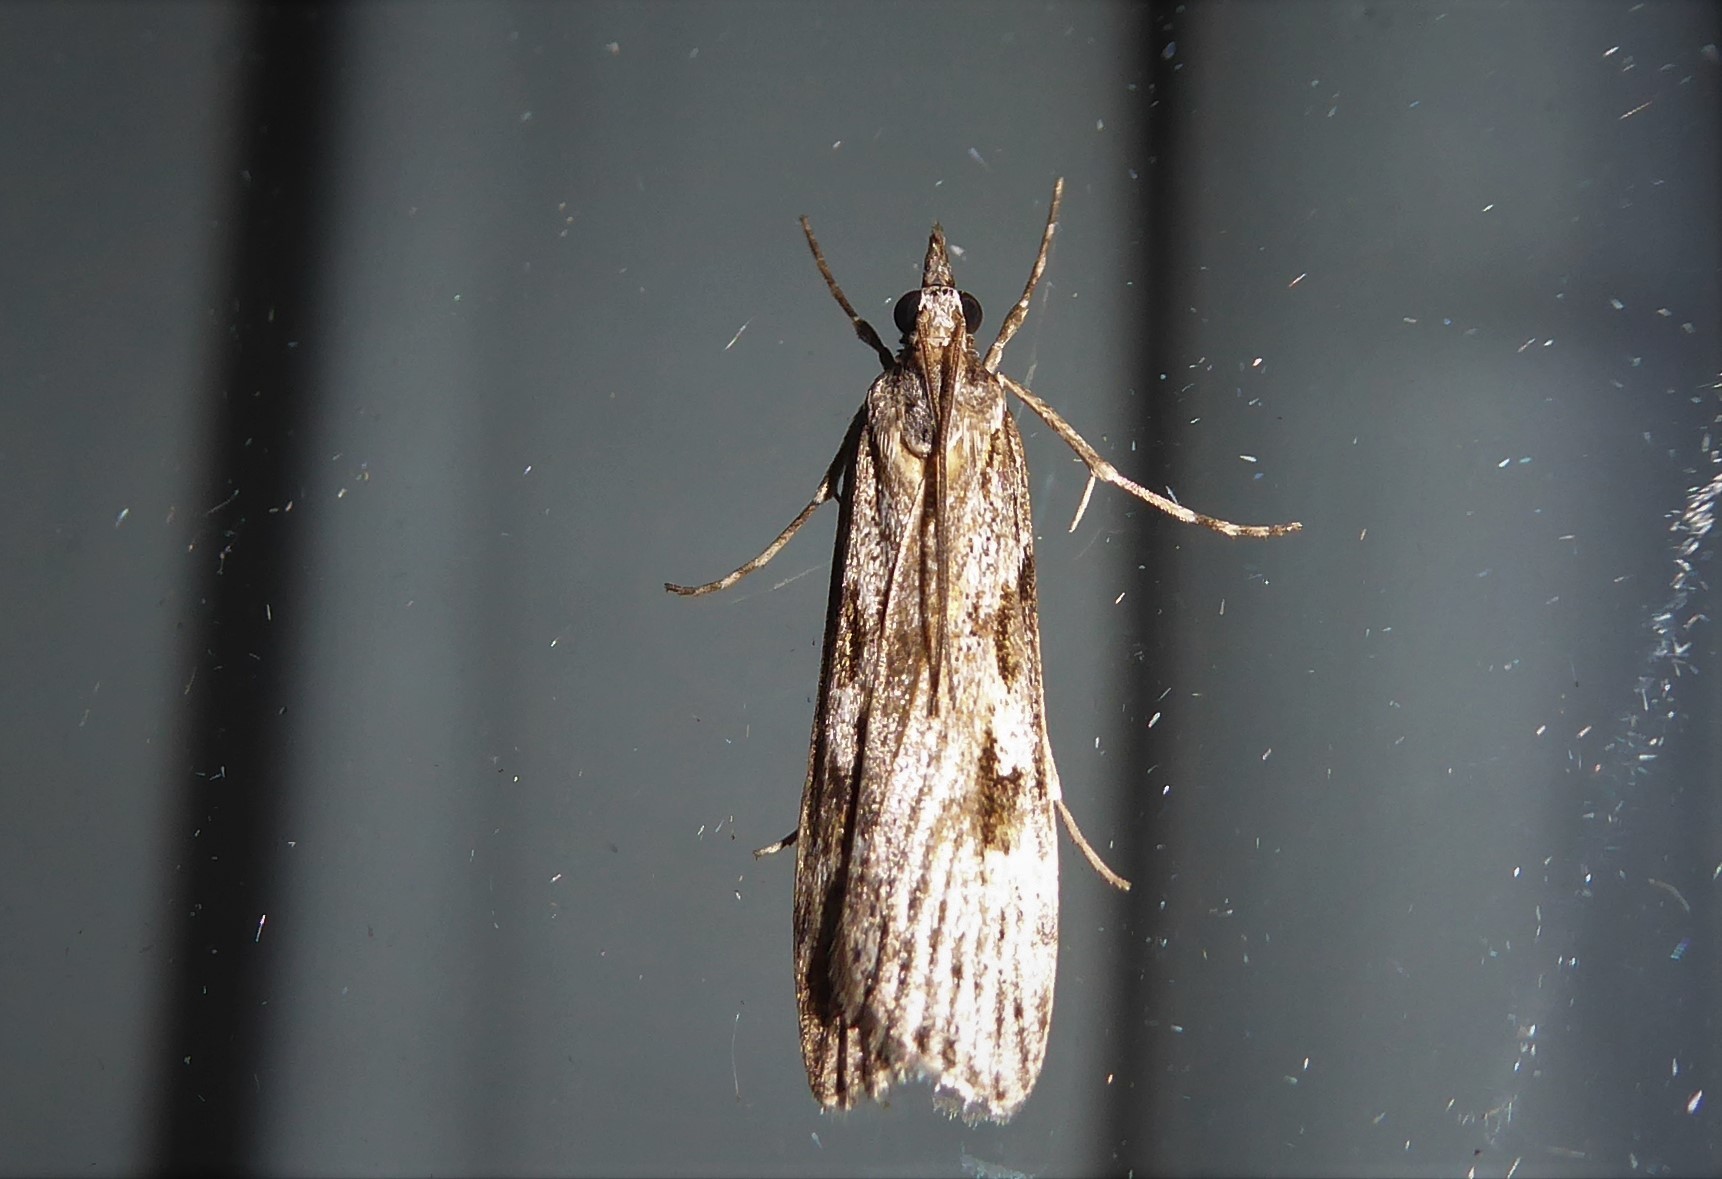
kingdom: Animalia
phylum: Arthropoda
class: Insecta
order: Lepidoptera
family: Crambidae
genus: Scoparia
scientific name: Scoparia halopis
